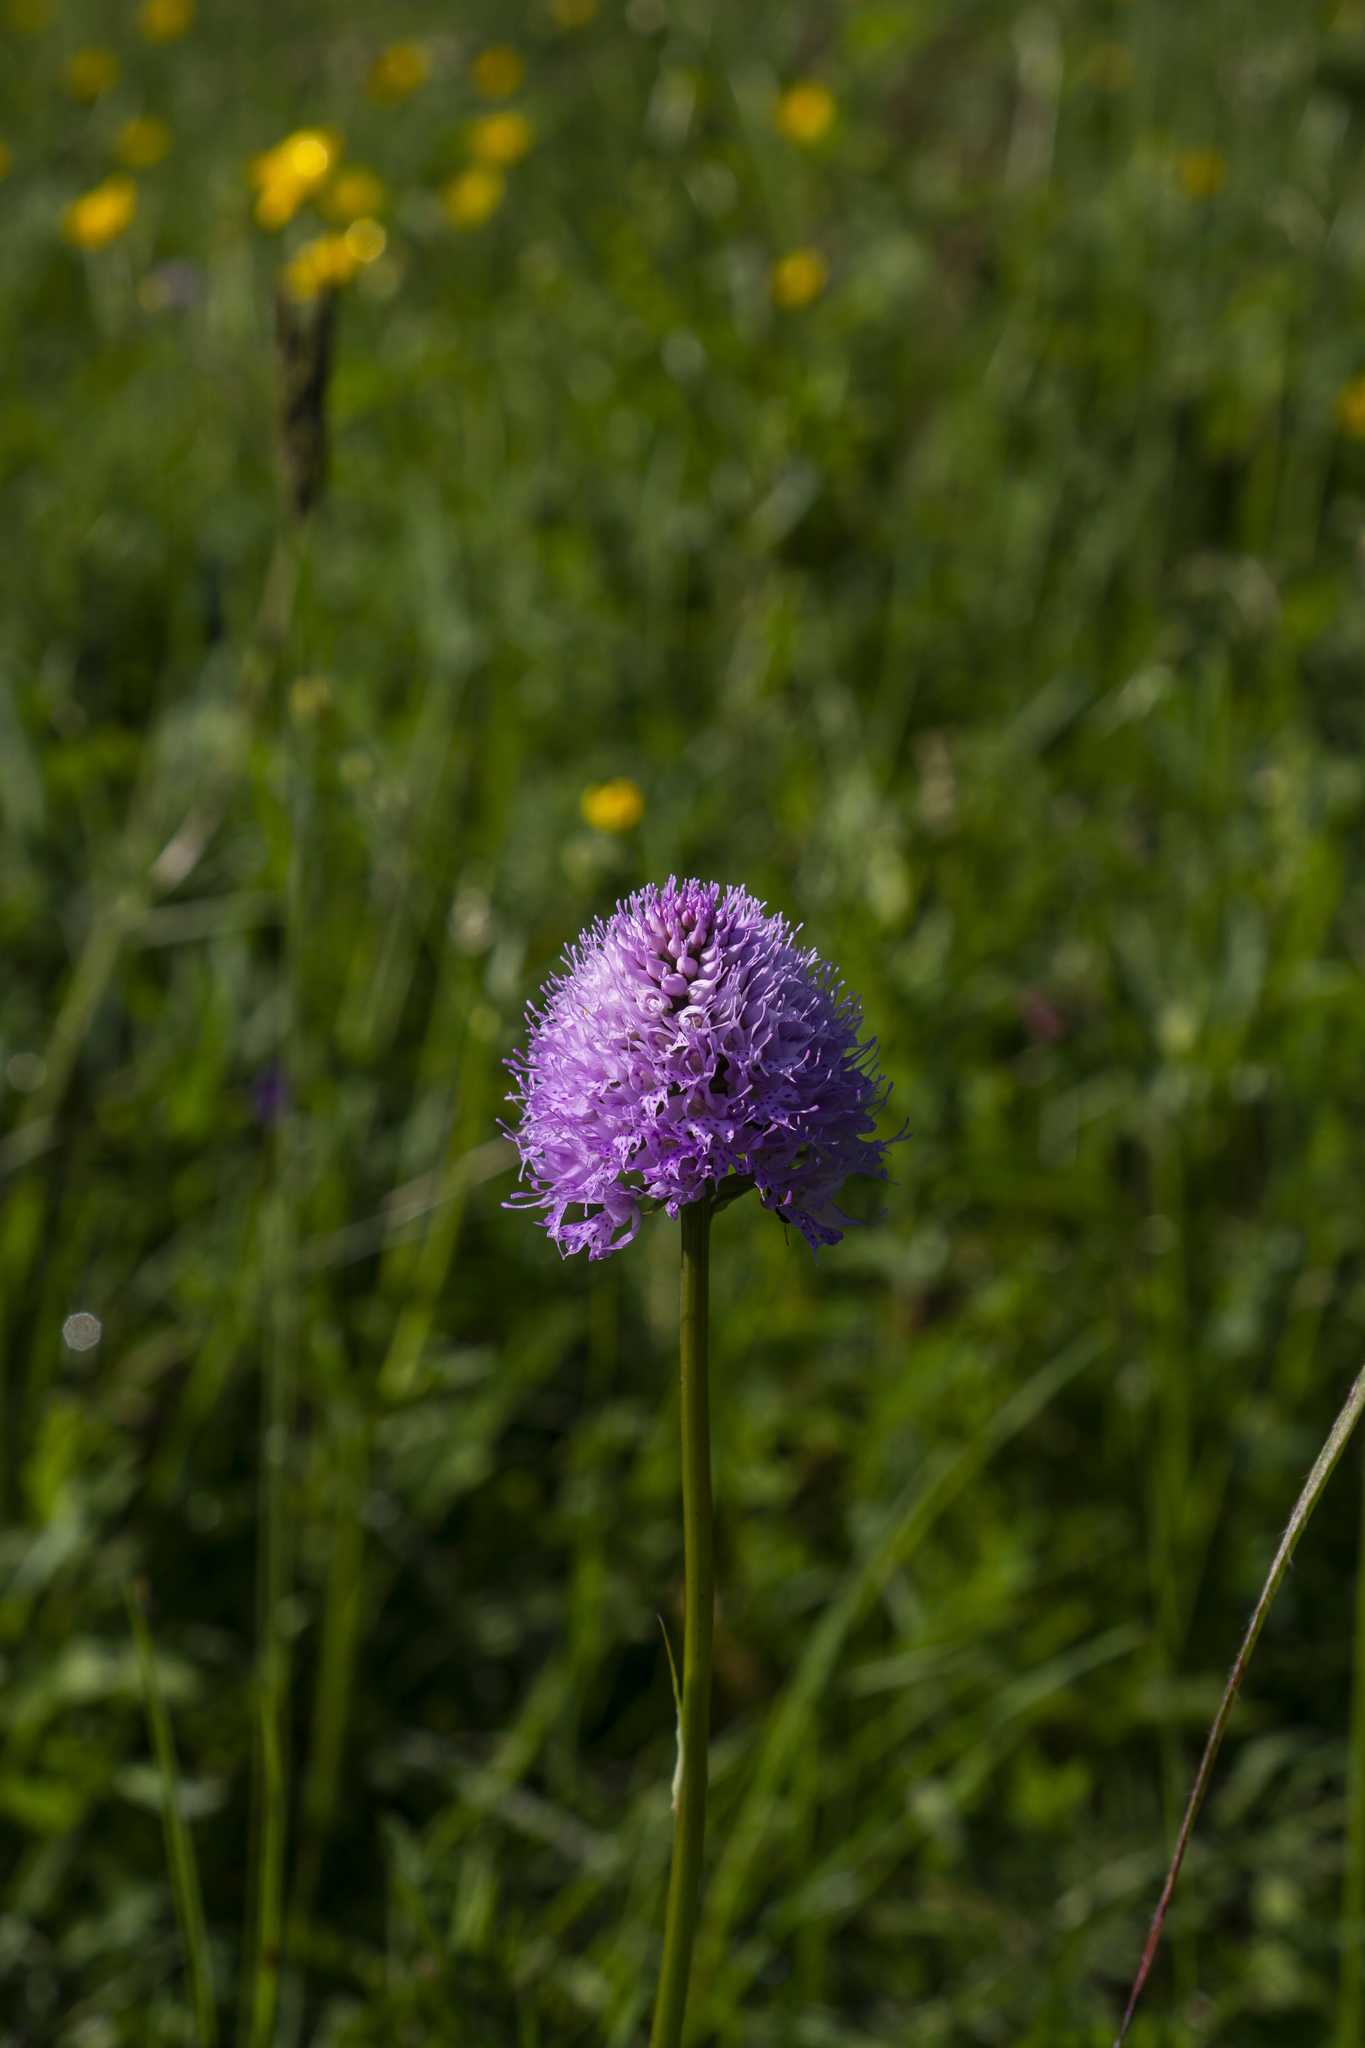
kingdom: Plantae
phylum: Tracheophyta
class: Liliopsida
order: Asparagales
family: Orchidaceae
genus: Traunsteinera
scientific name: Traunsteinera globosa
